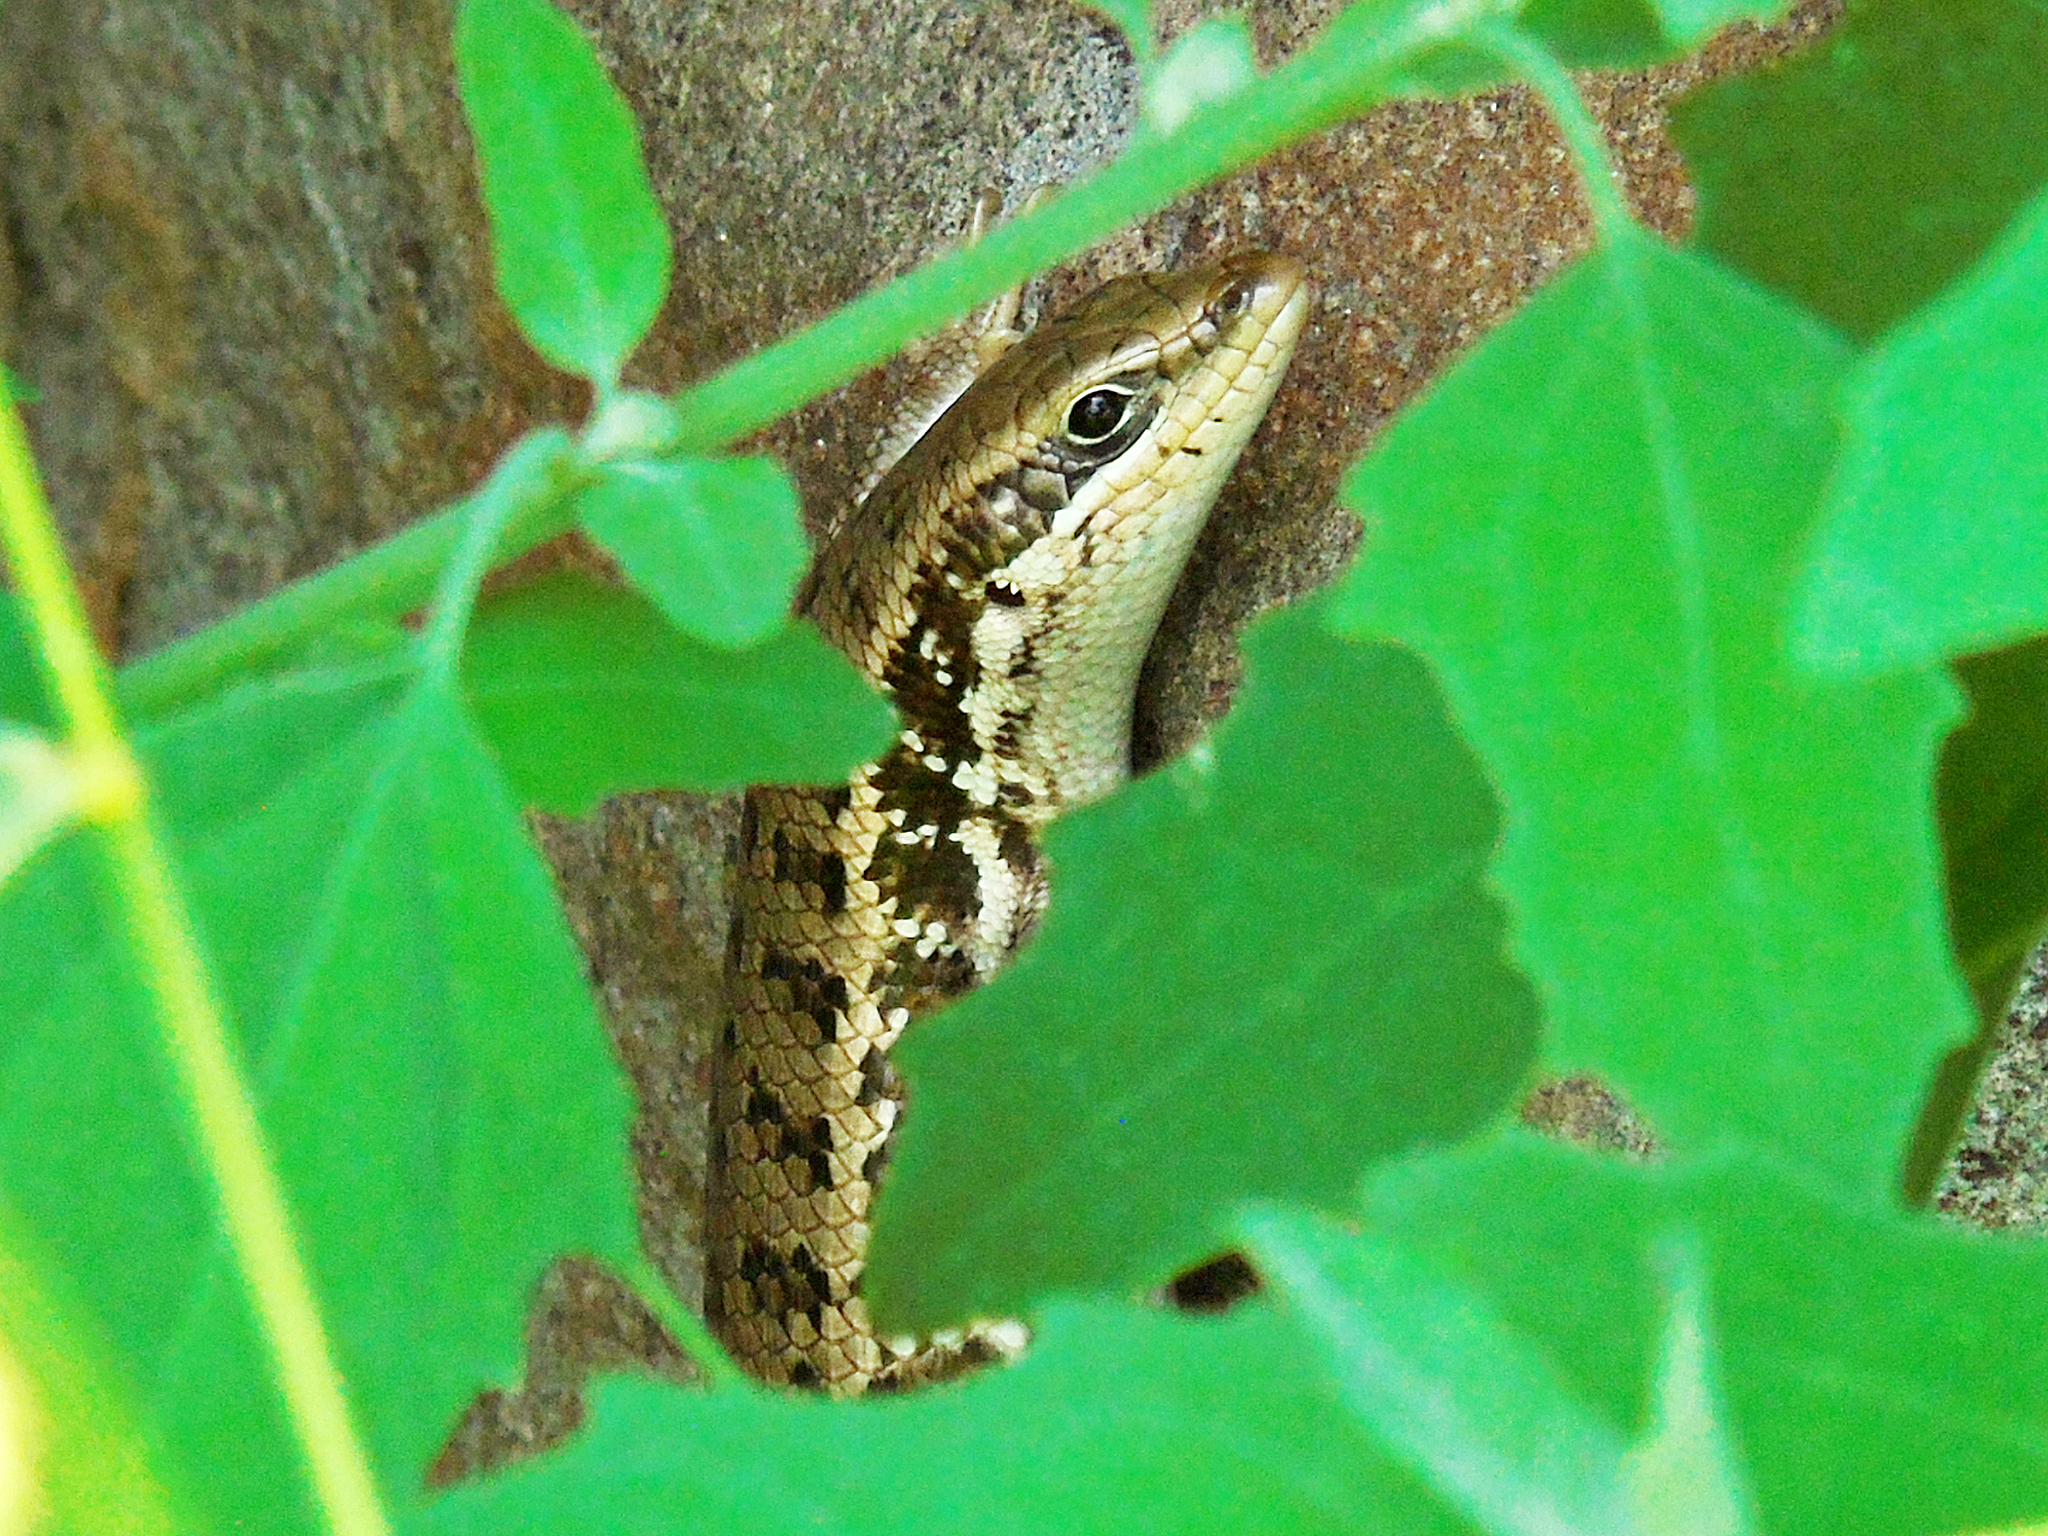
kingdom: Animalia
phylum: Chordata
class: Squamata
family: Scincidae
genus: Heremites
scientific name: Heremites auratus
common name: Golden grass mabuya
